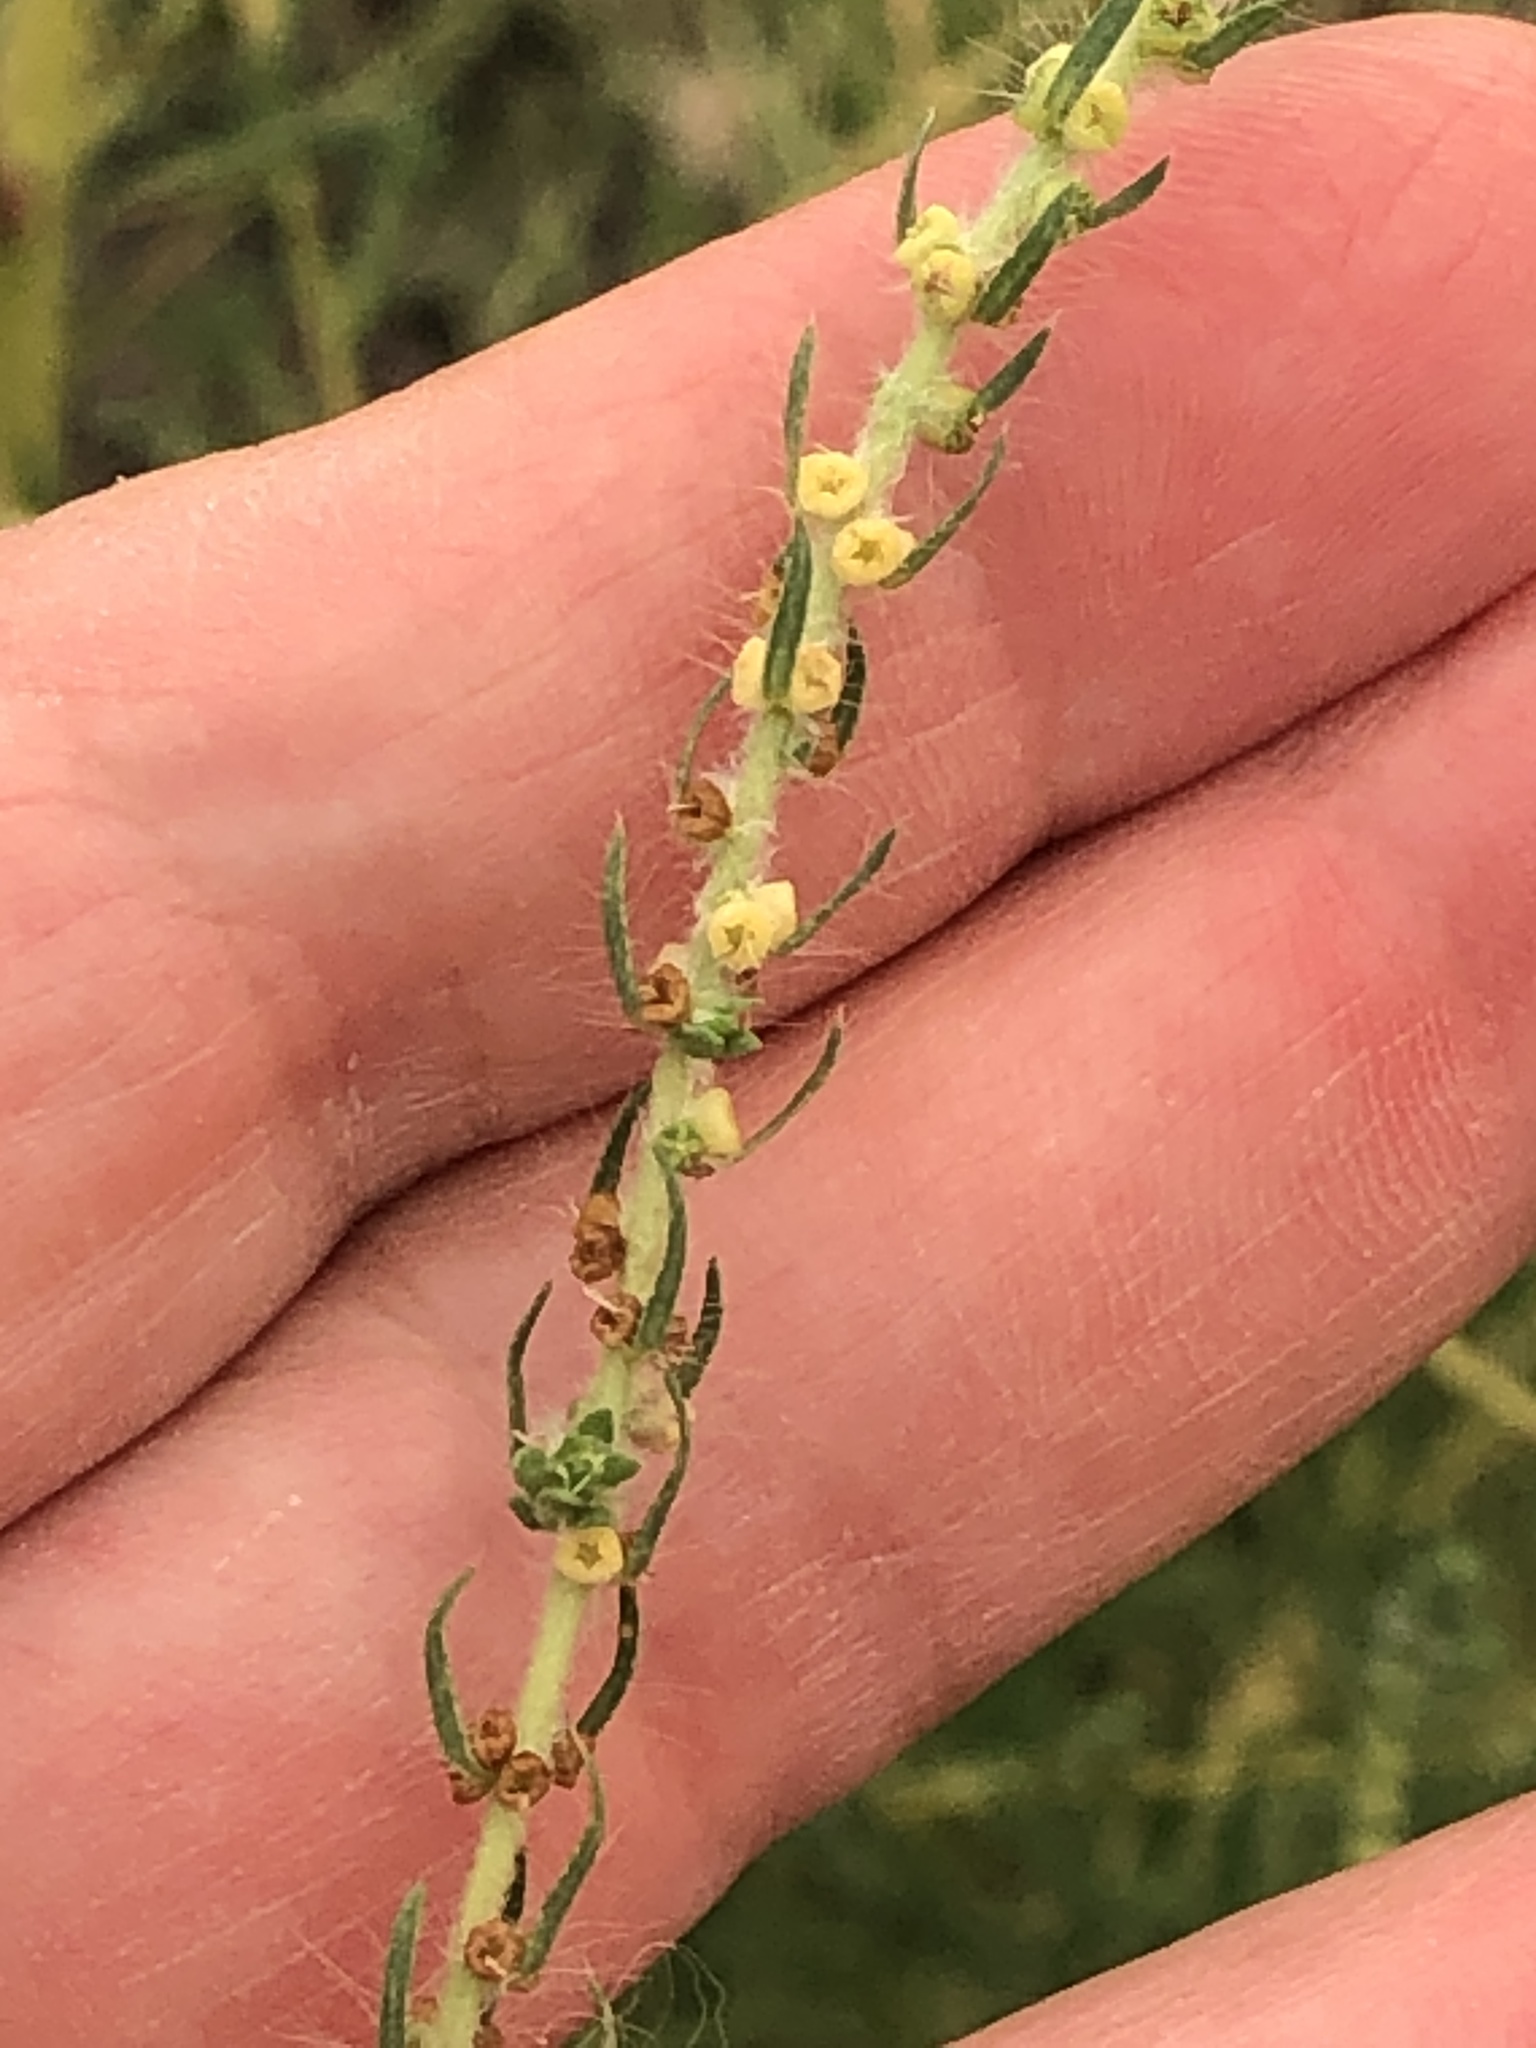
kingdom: Plantae
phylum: Tracheophyta
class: Magnoliopsida
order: Caryophyllales
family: Amaranthaceae
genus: Bassia
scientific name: Bassia scoparia
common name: Belvedere
